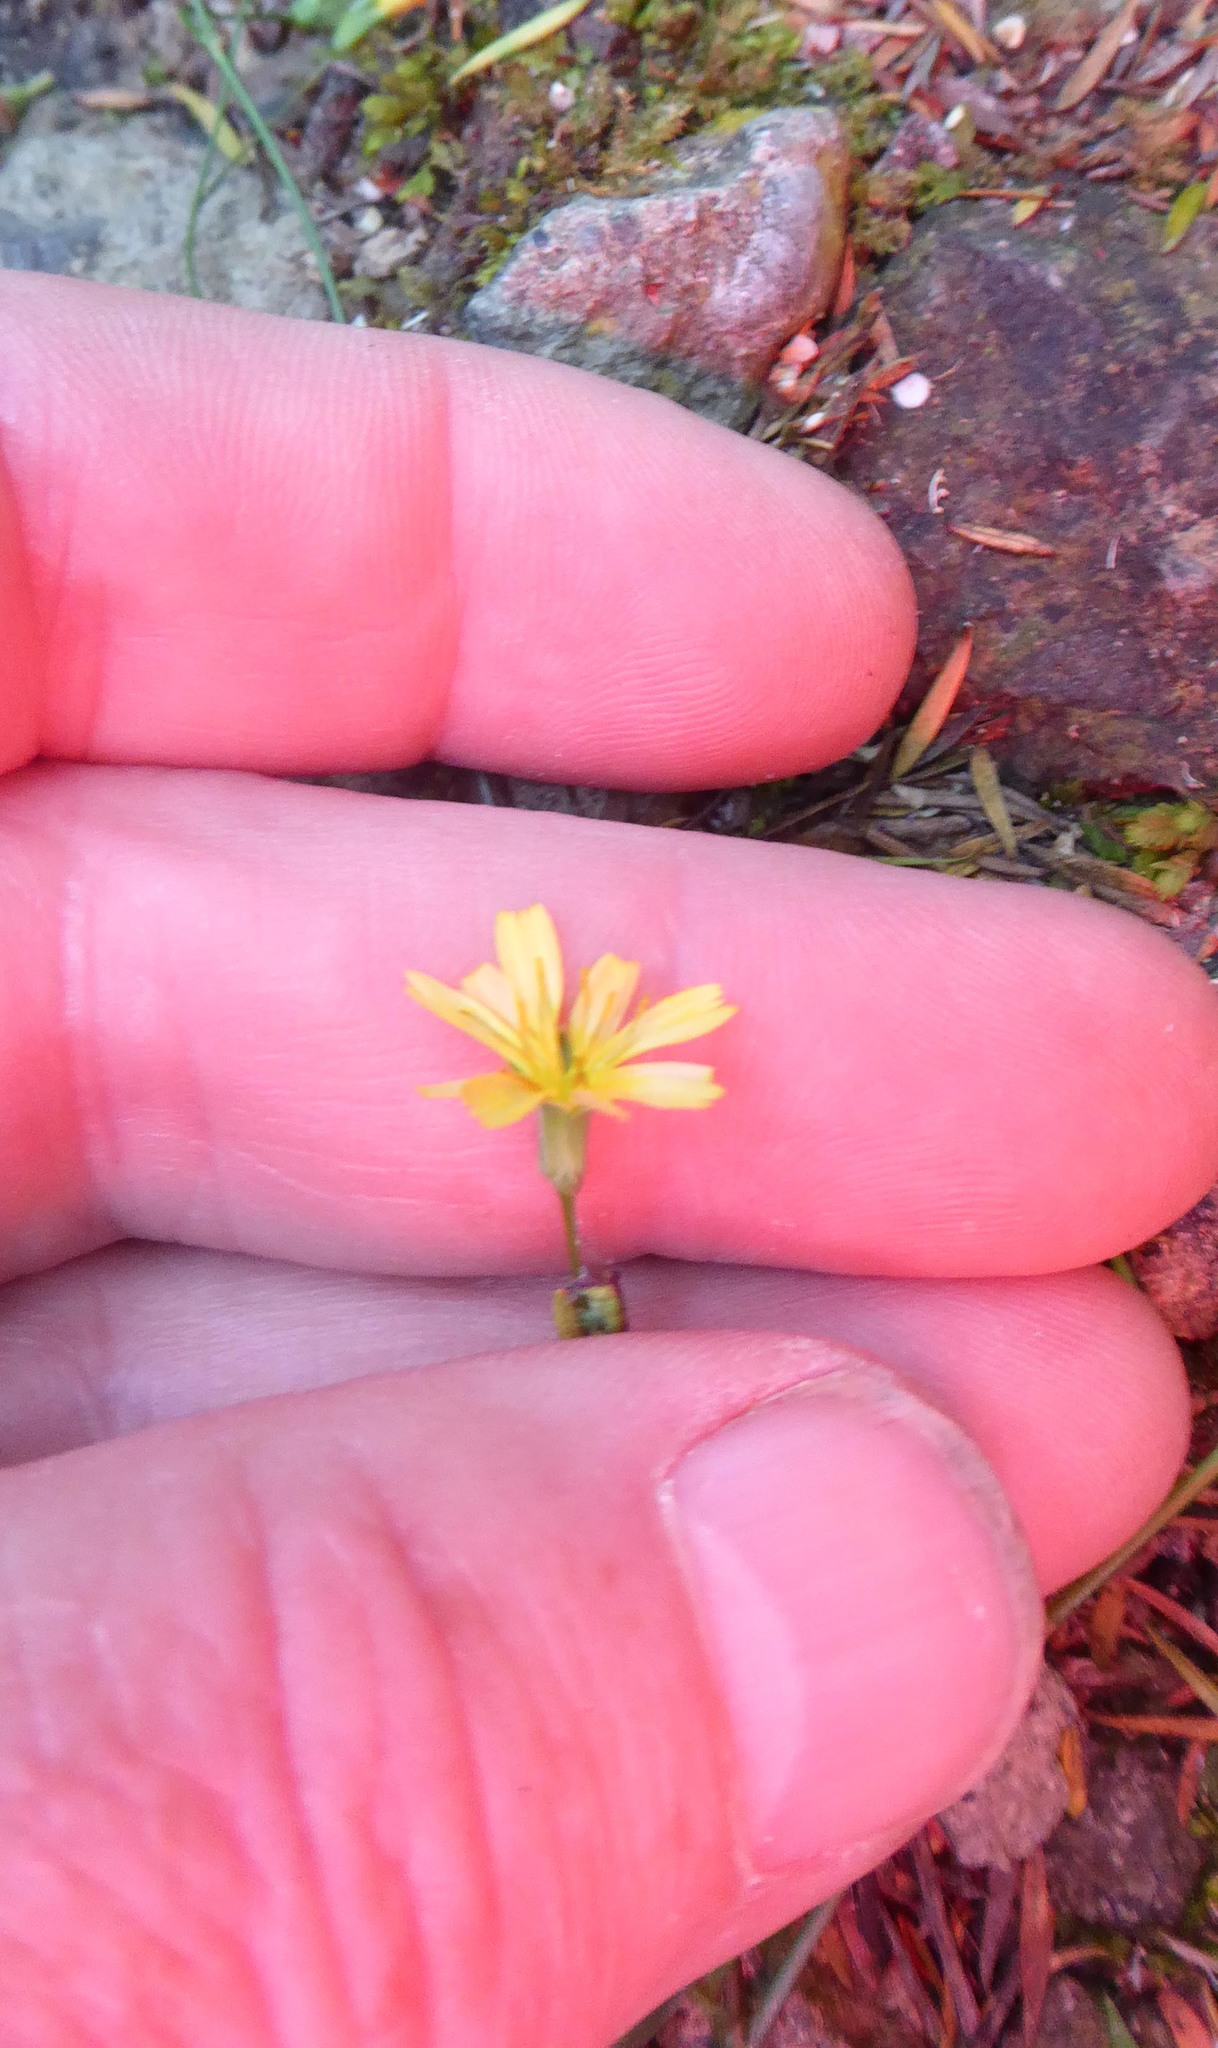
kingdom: Plantae
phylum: Tracheophyta
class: Magnoliopsida
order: Asterales
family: Asteraceae
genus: Lapsana
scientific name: Lapsana communis
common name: Nipplewort
